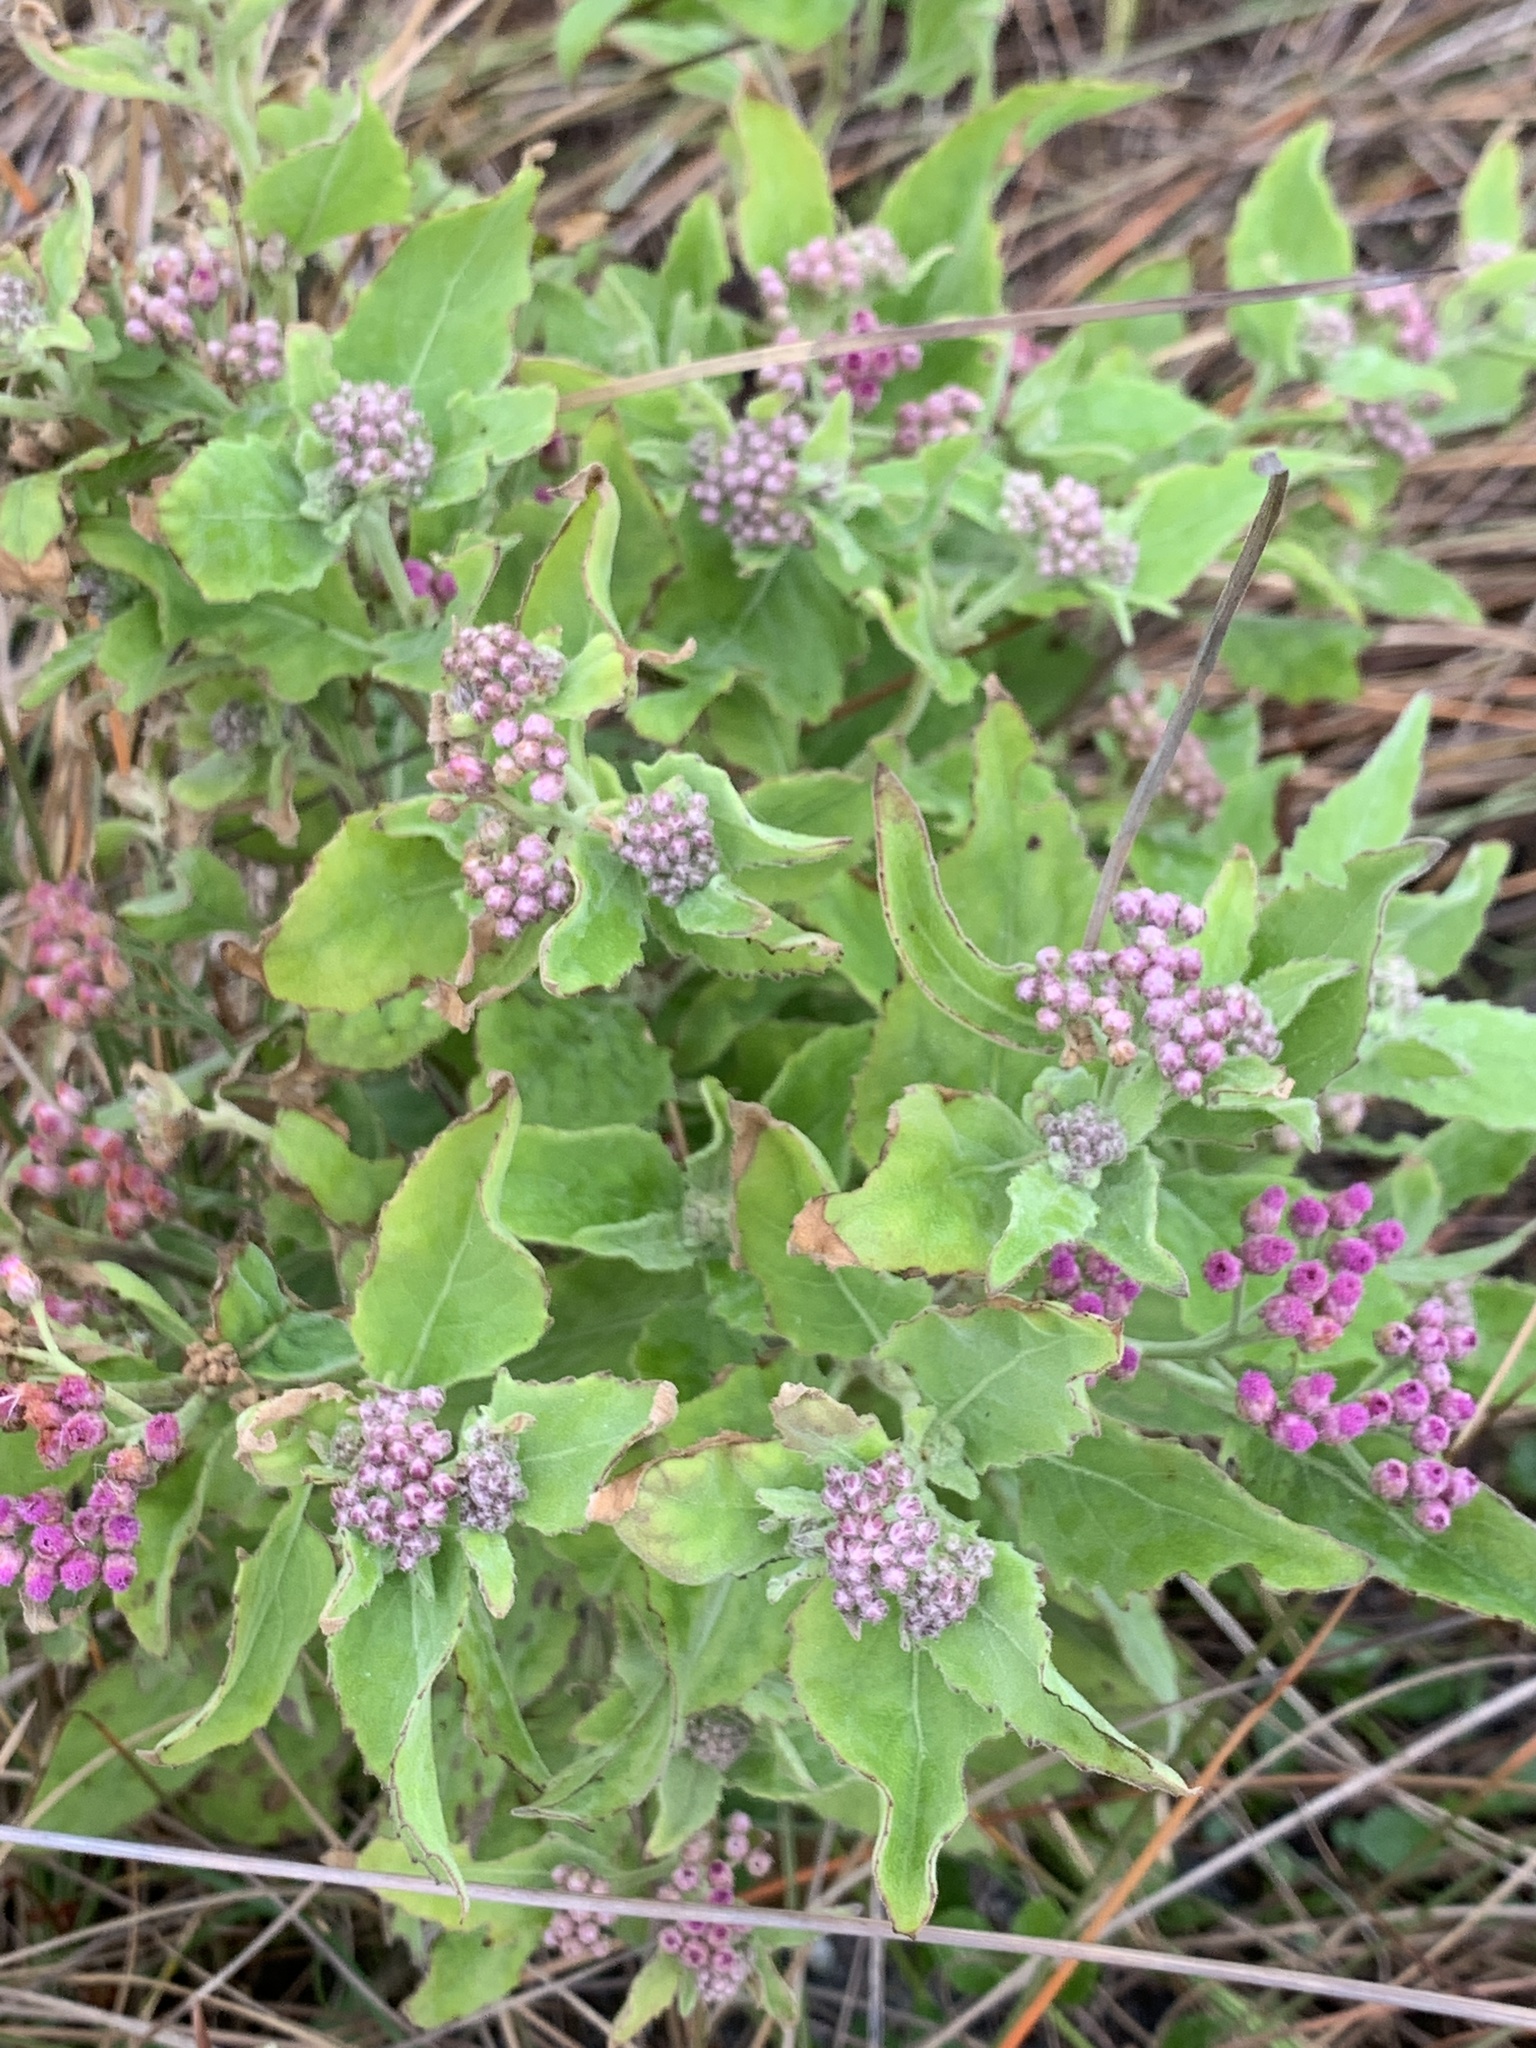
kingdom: Plantae
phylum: Tracheophyta
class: Magnoliopsida
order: Asterales
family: Asteraceae
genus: Pluchea
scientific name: Pluchea odorata
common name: Saltmarsh fleabane
